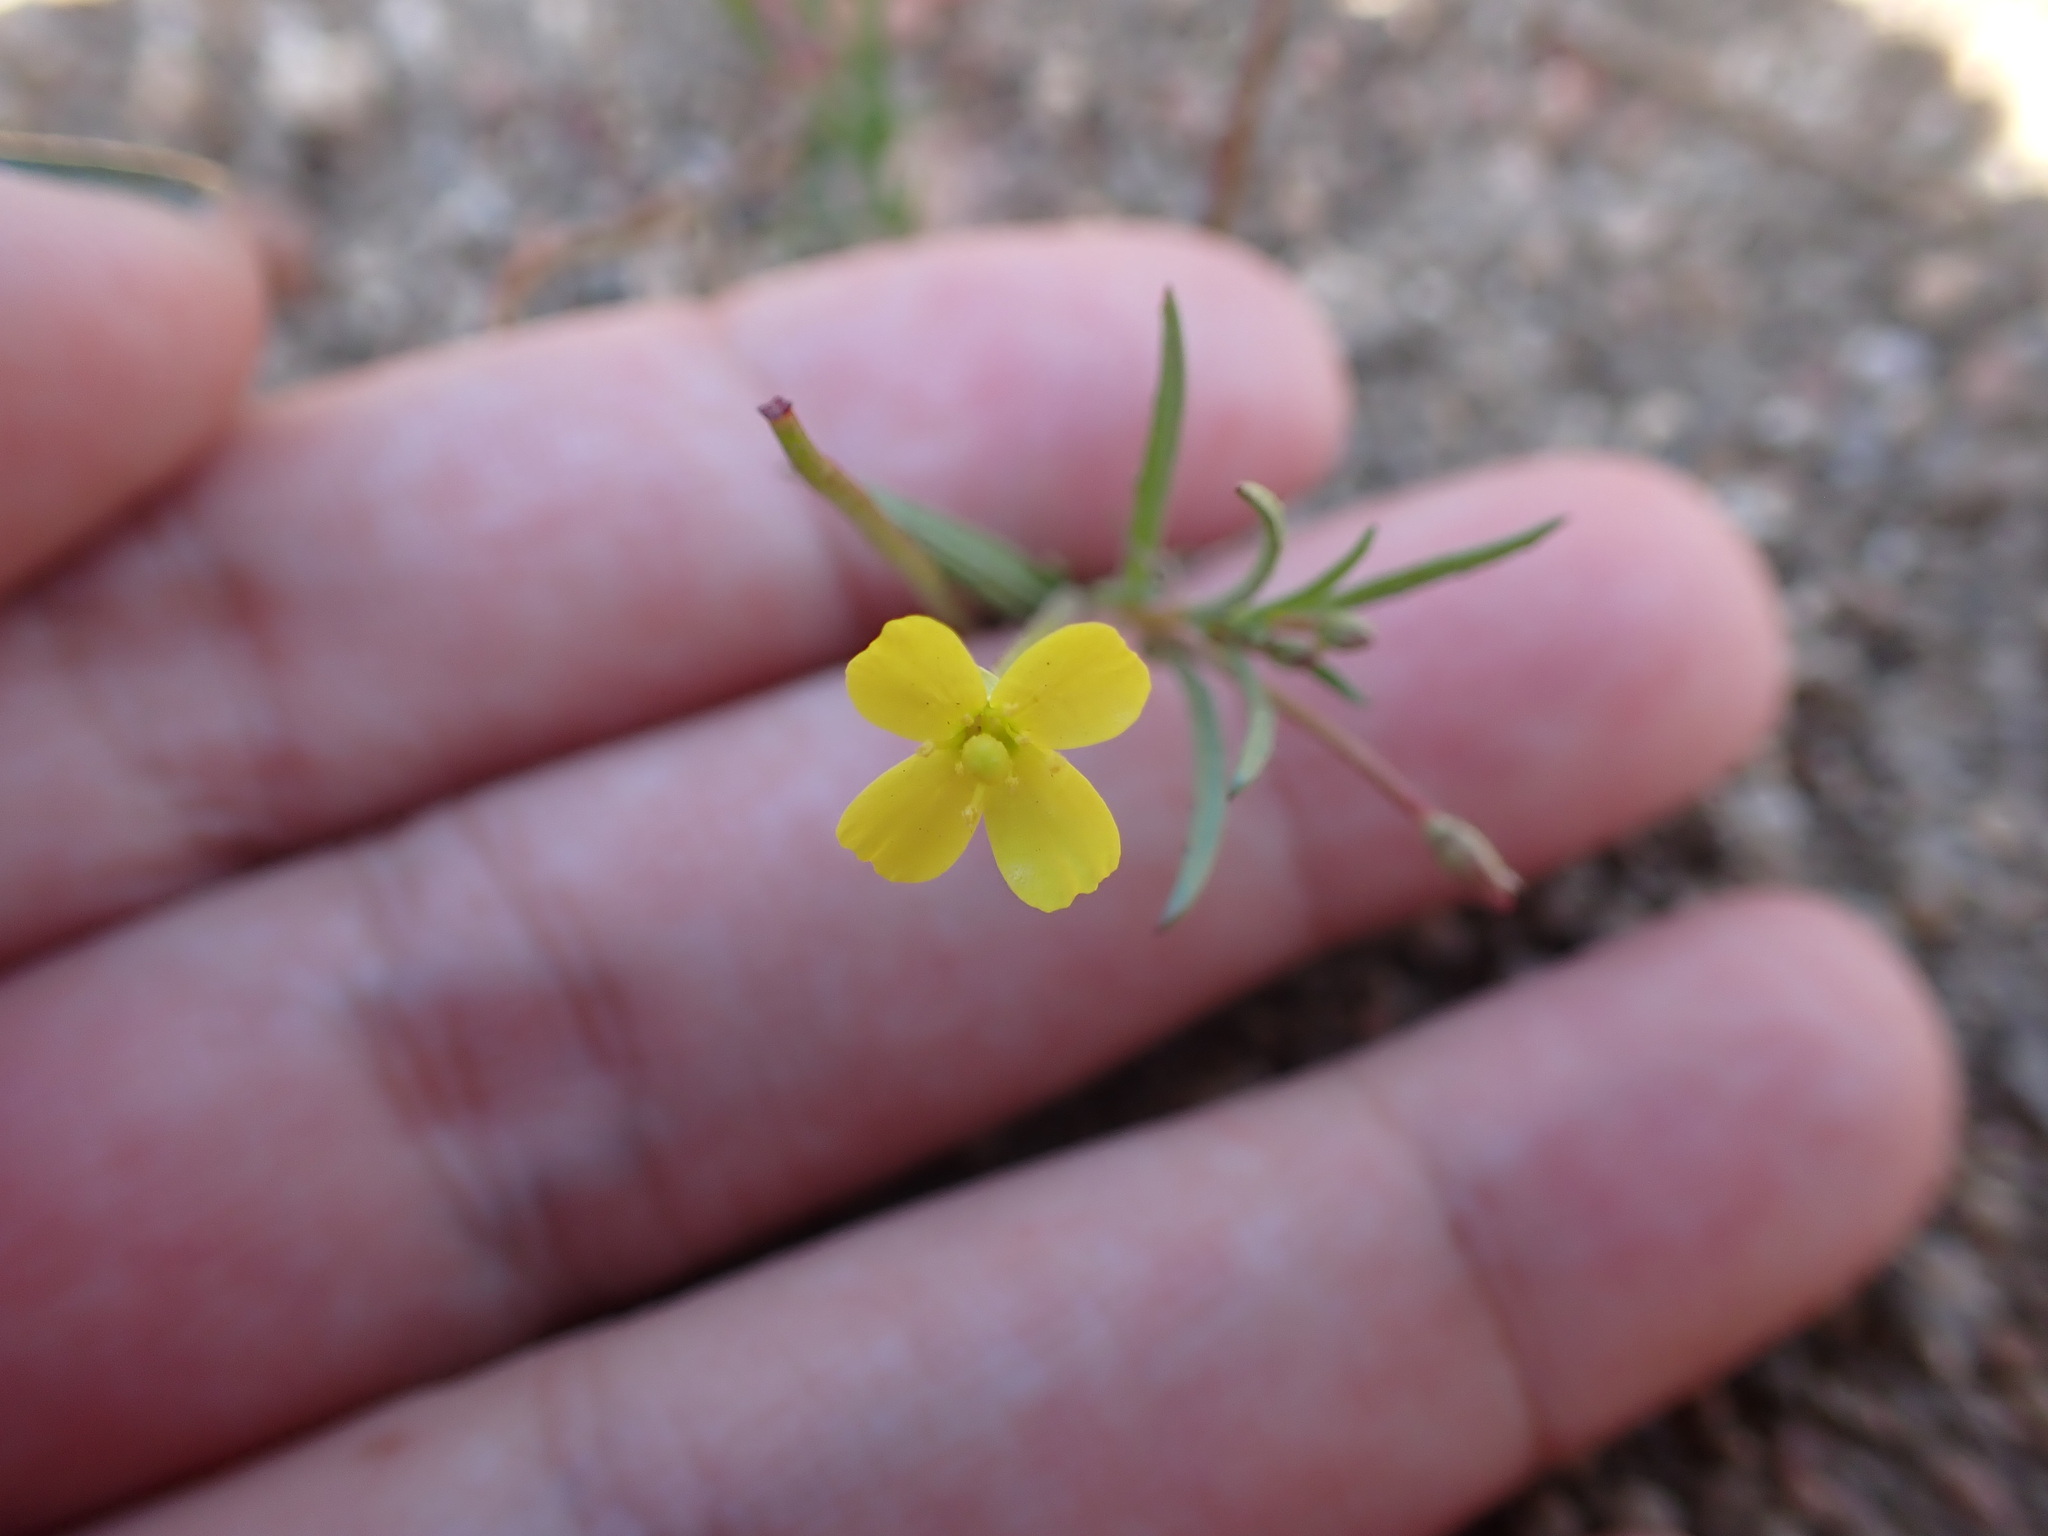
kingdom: Plantae
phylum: Tracheophyta
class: Magnoliopsida
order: Myrtales
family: Onagraceae
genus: Camissonia
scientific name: Camissonia strigulosa
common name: Contorted-primrose
